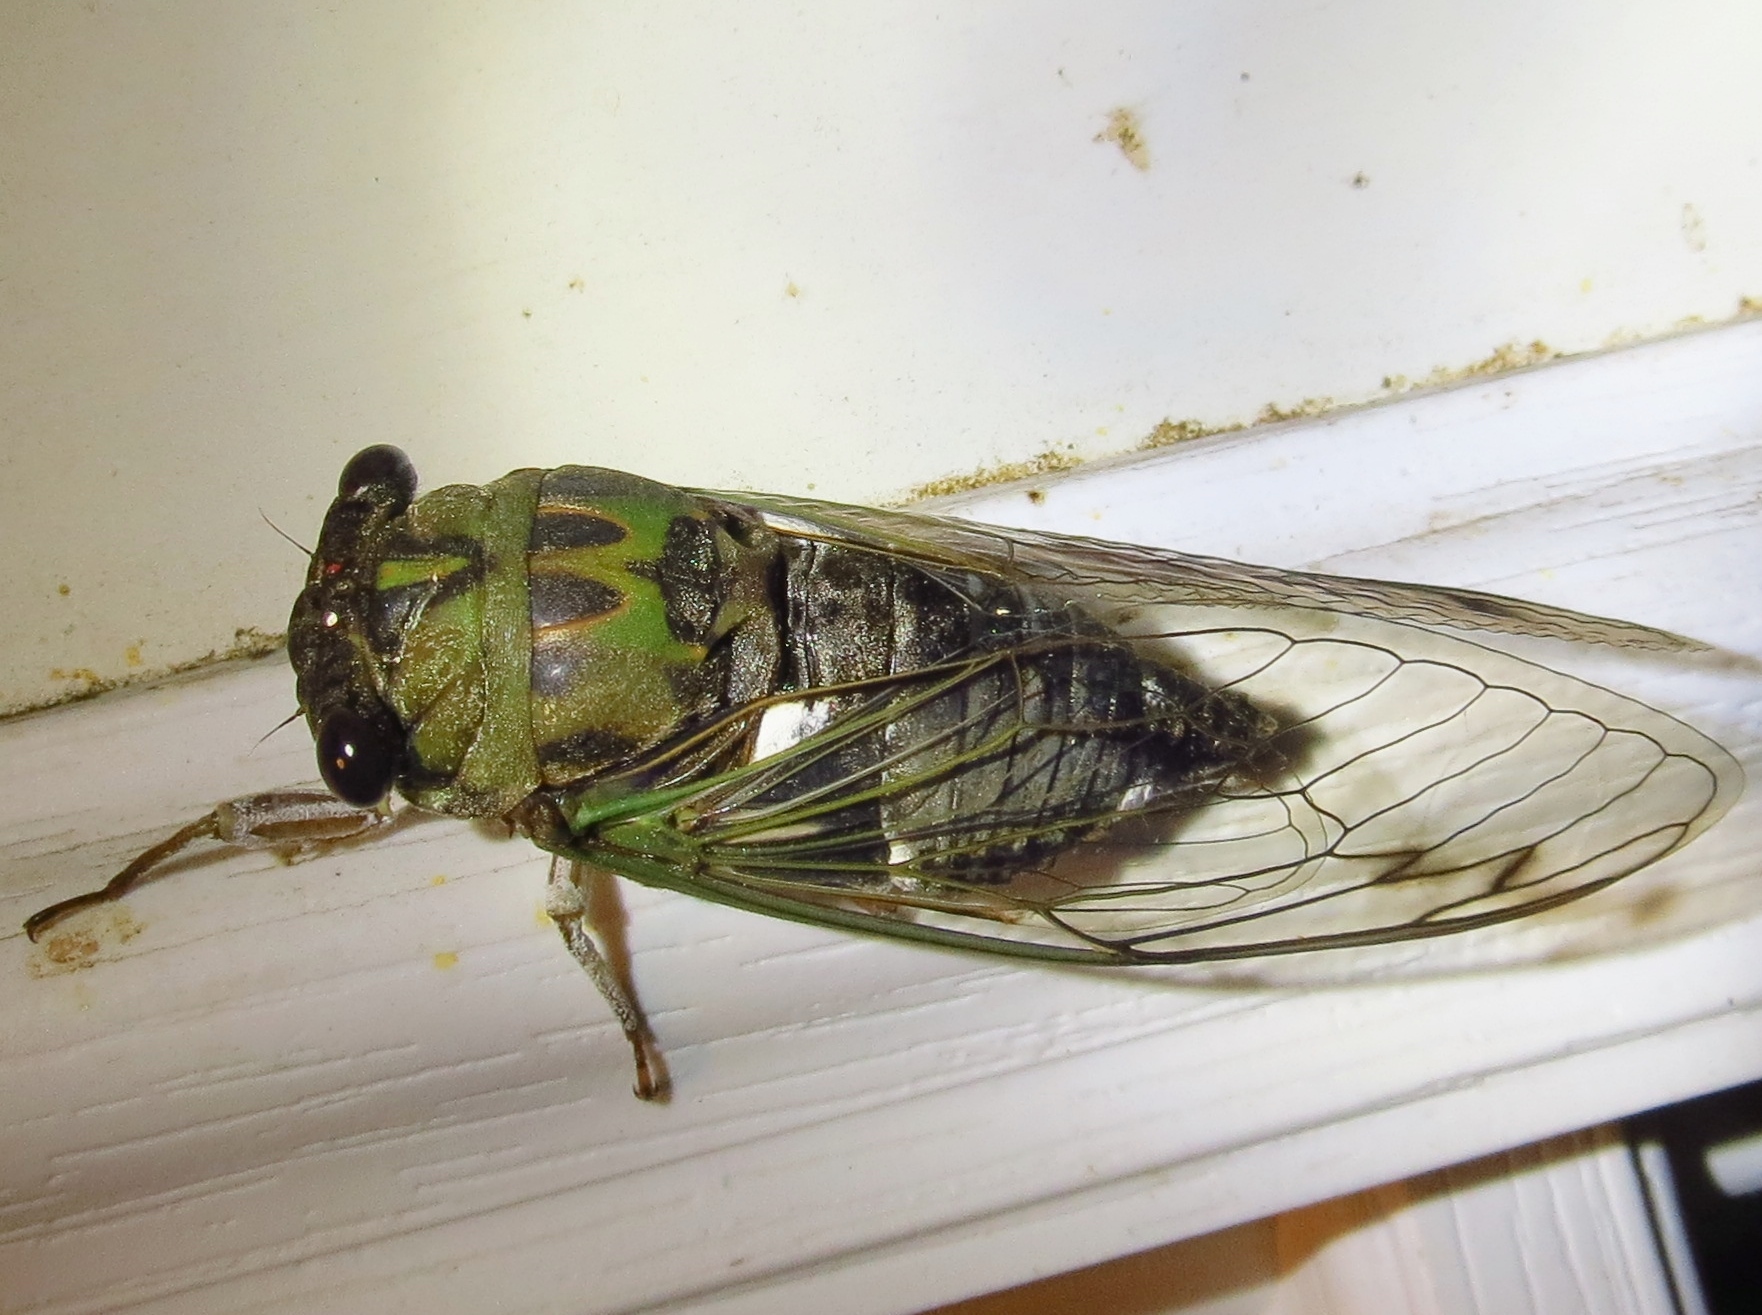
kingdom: Animalia
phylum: Arthropoda
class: Insecta
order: Hemiptera
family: Cicadidae
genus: Neotibicen
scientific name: Neotibicen pruinosus
